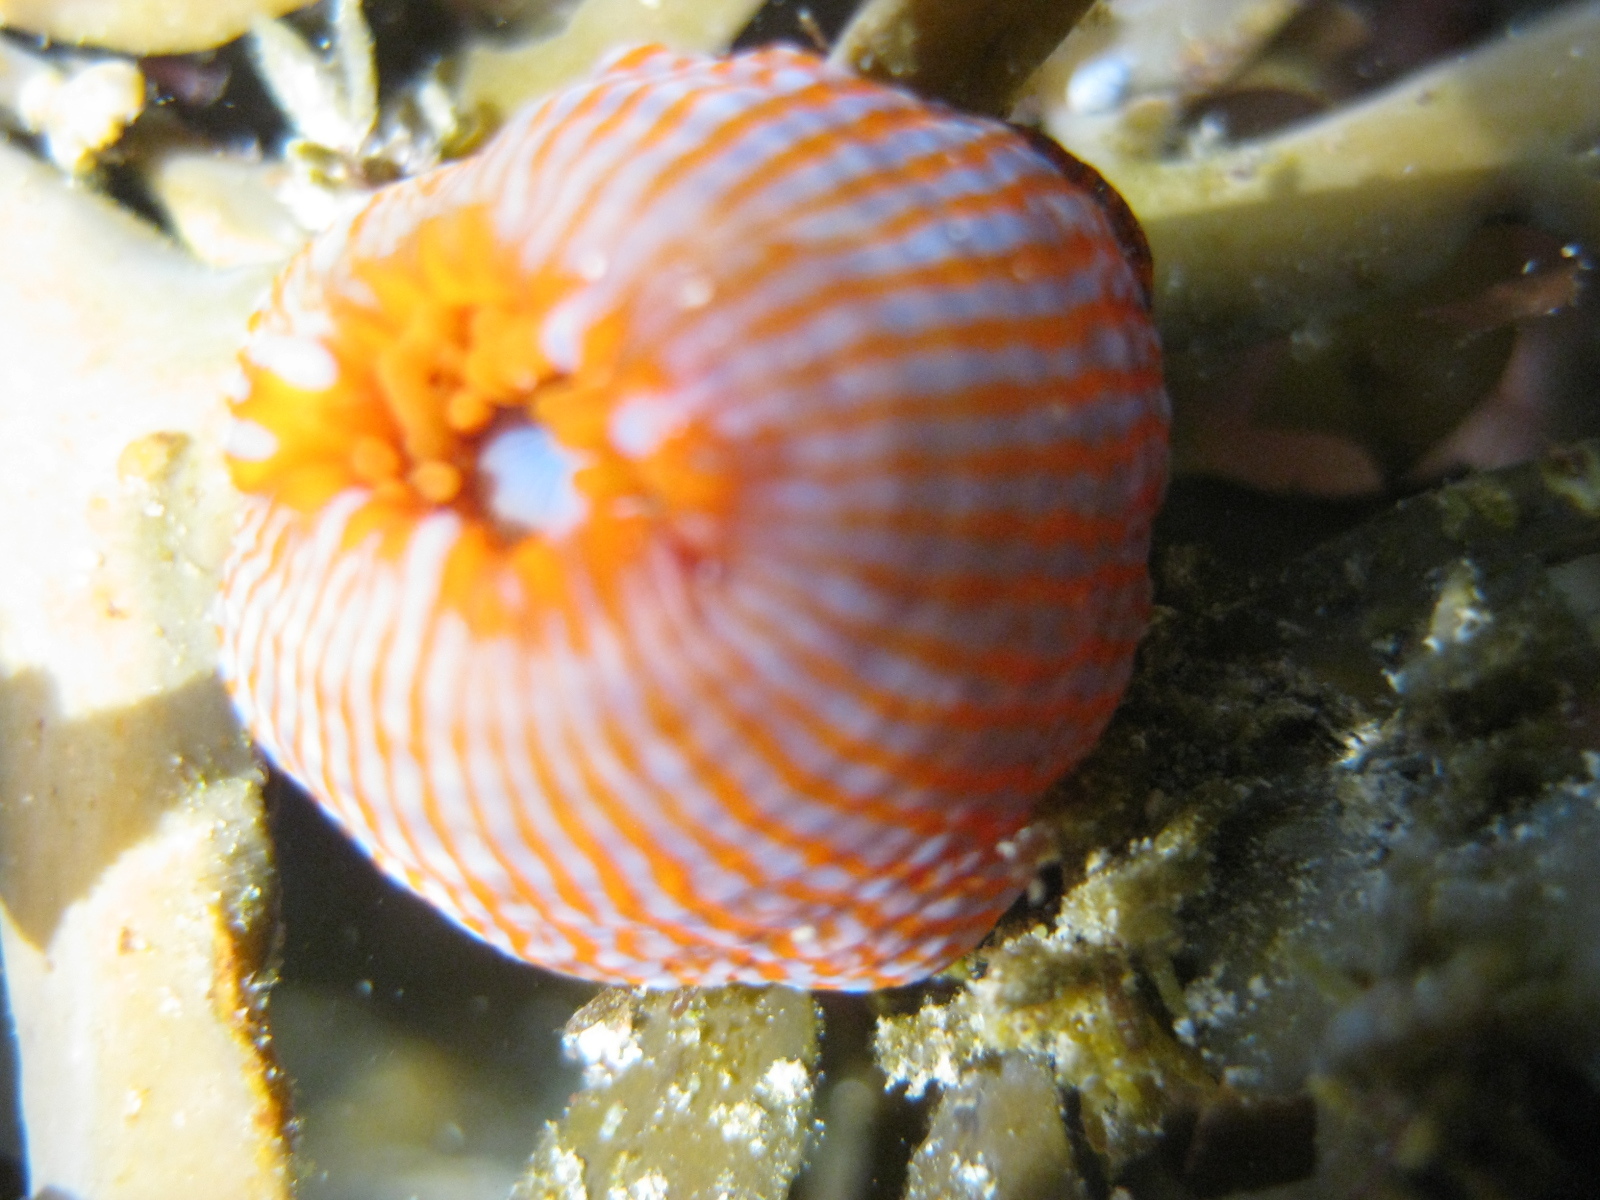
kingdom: Animalia
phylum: Cnidaria
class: Anthozoa
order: Actiniaria
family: Actiniidae
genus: Epiactis
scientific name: Epiactis
